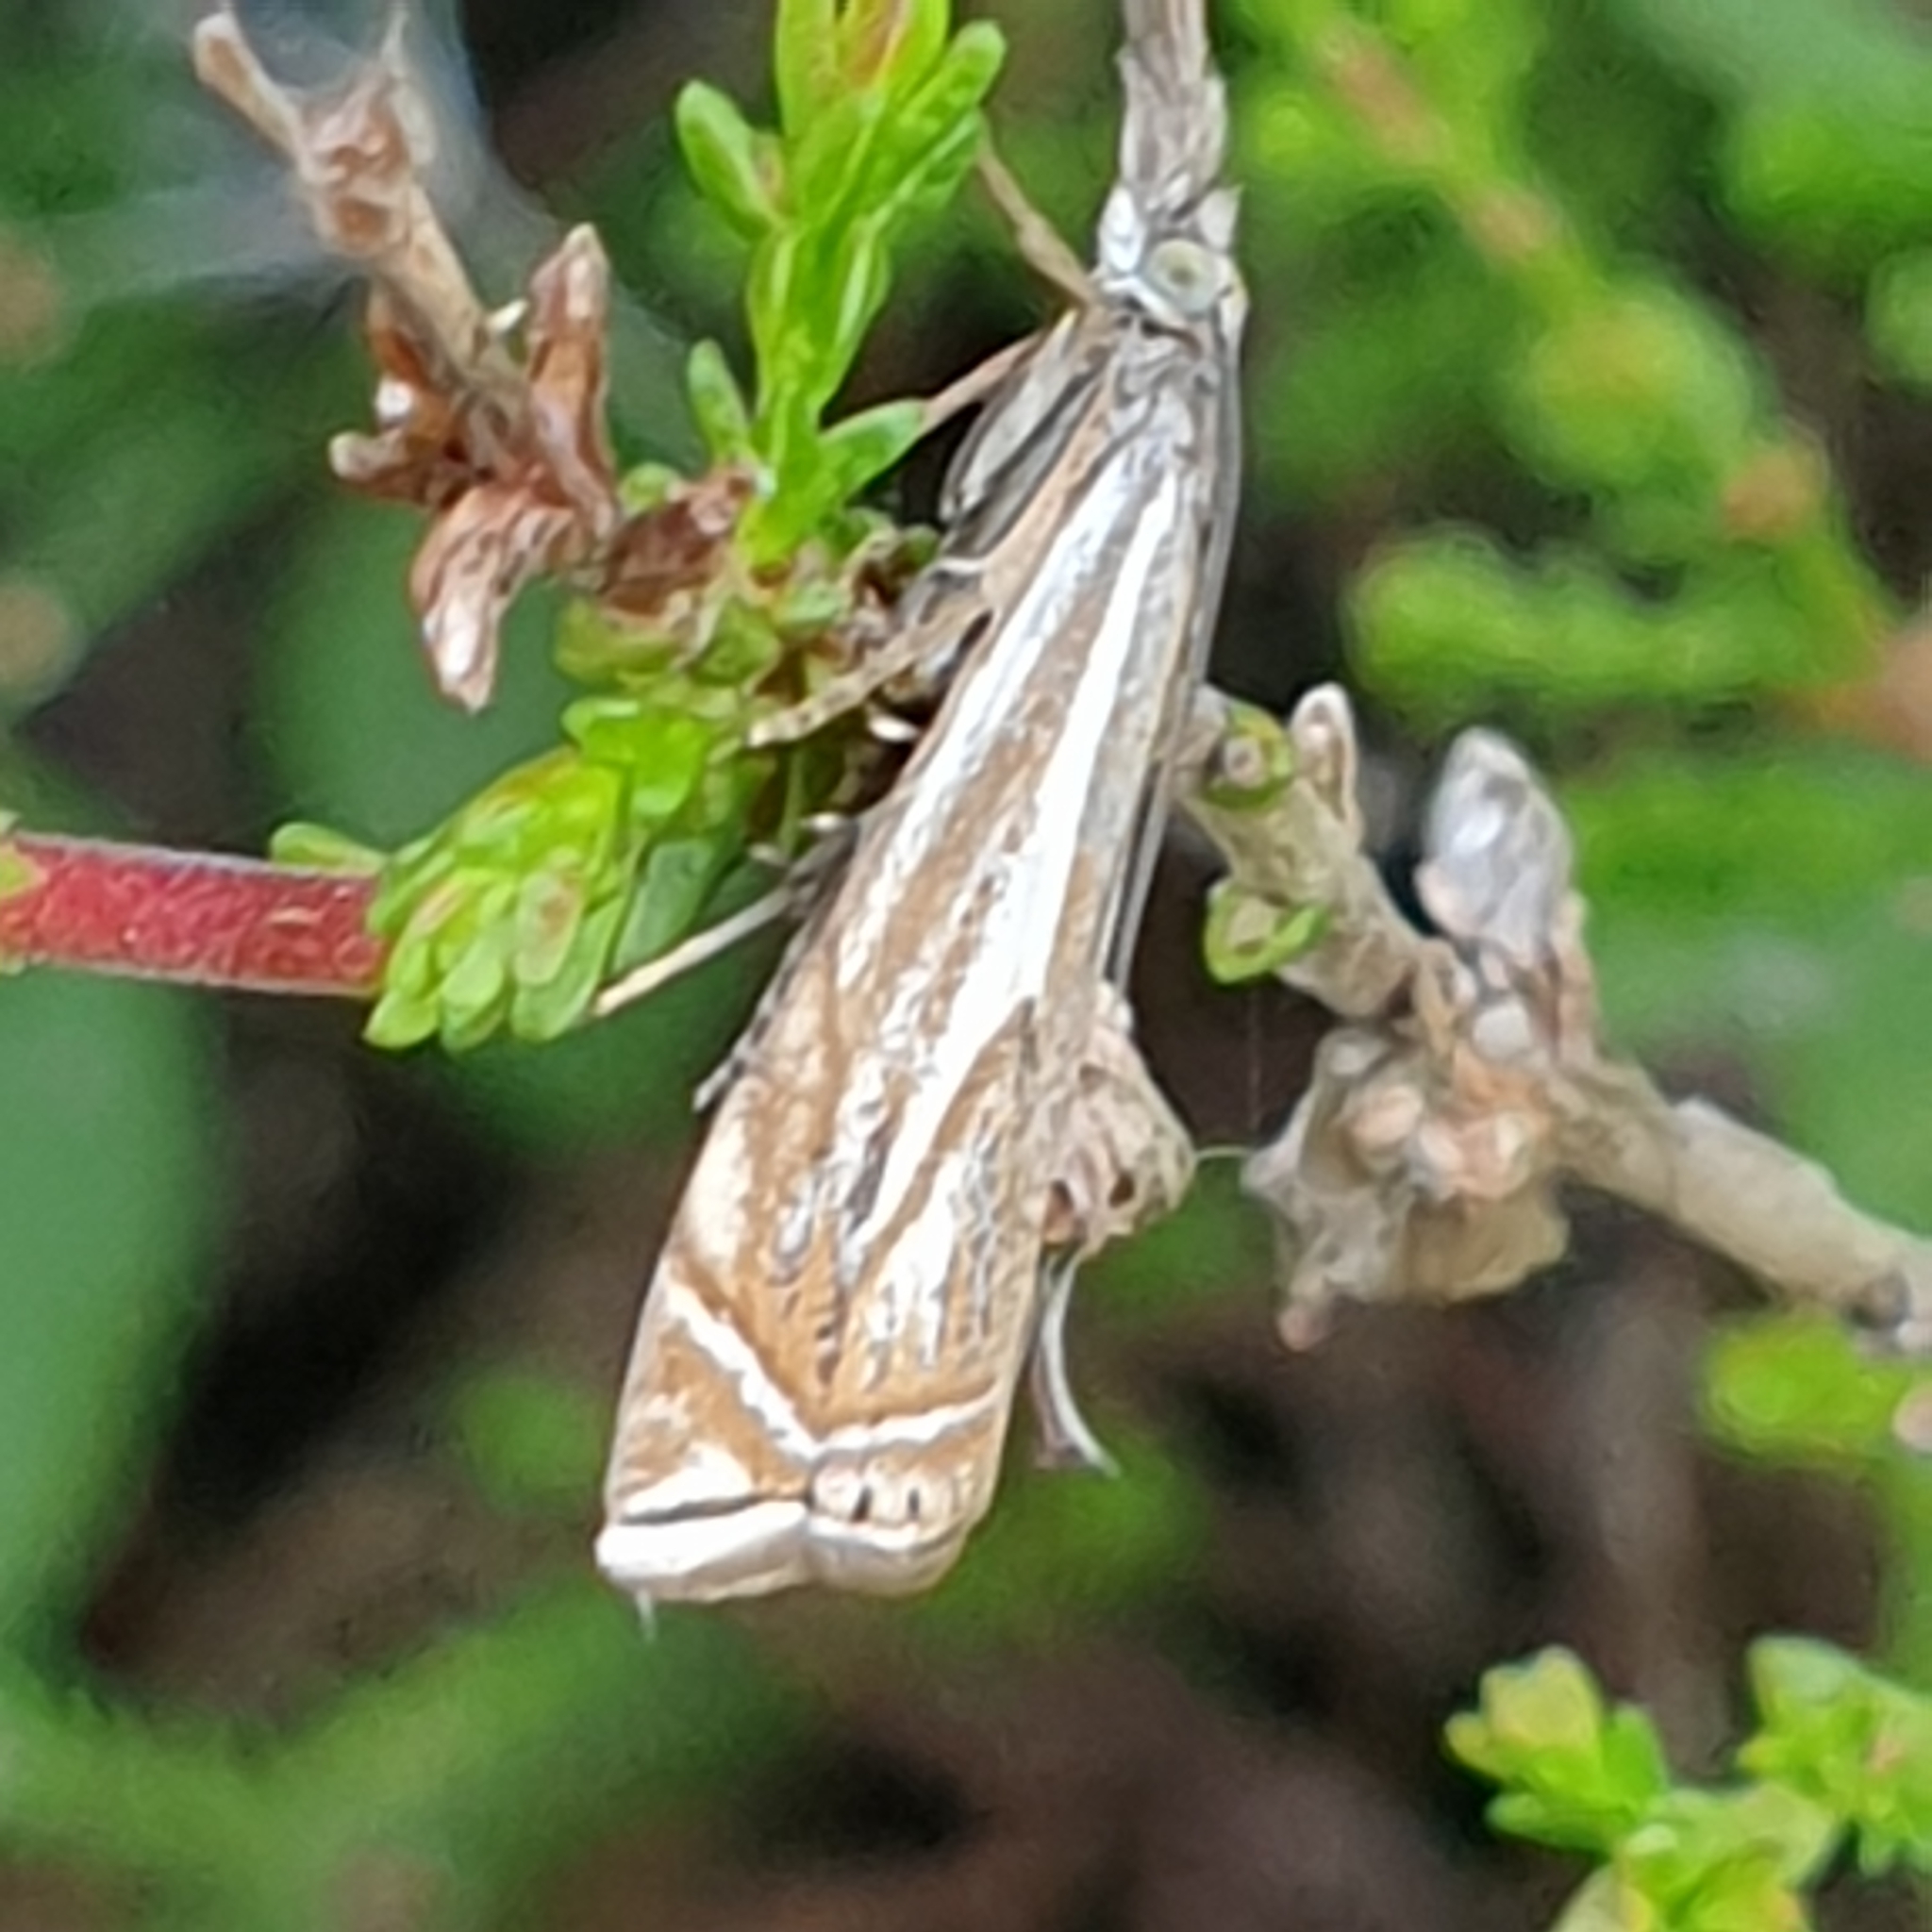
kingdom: Animalia
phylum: Arthropoda
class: Insecta
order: Lepidoptera
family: Crambidae
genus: Crambus
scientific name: Crambus nemorella
